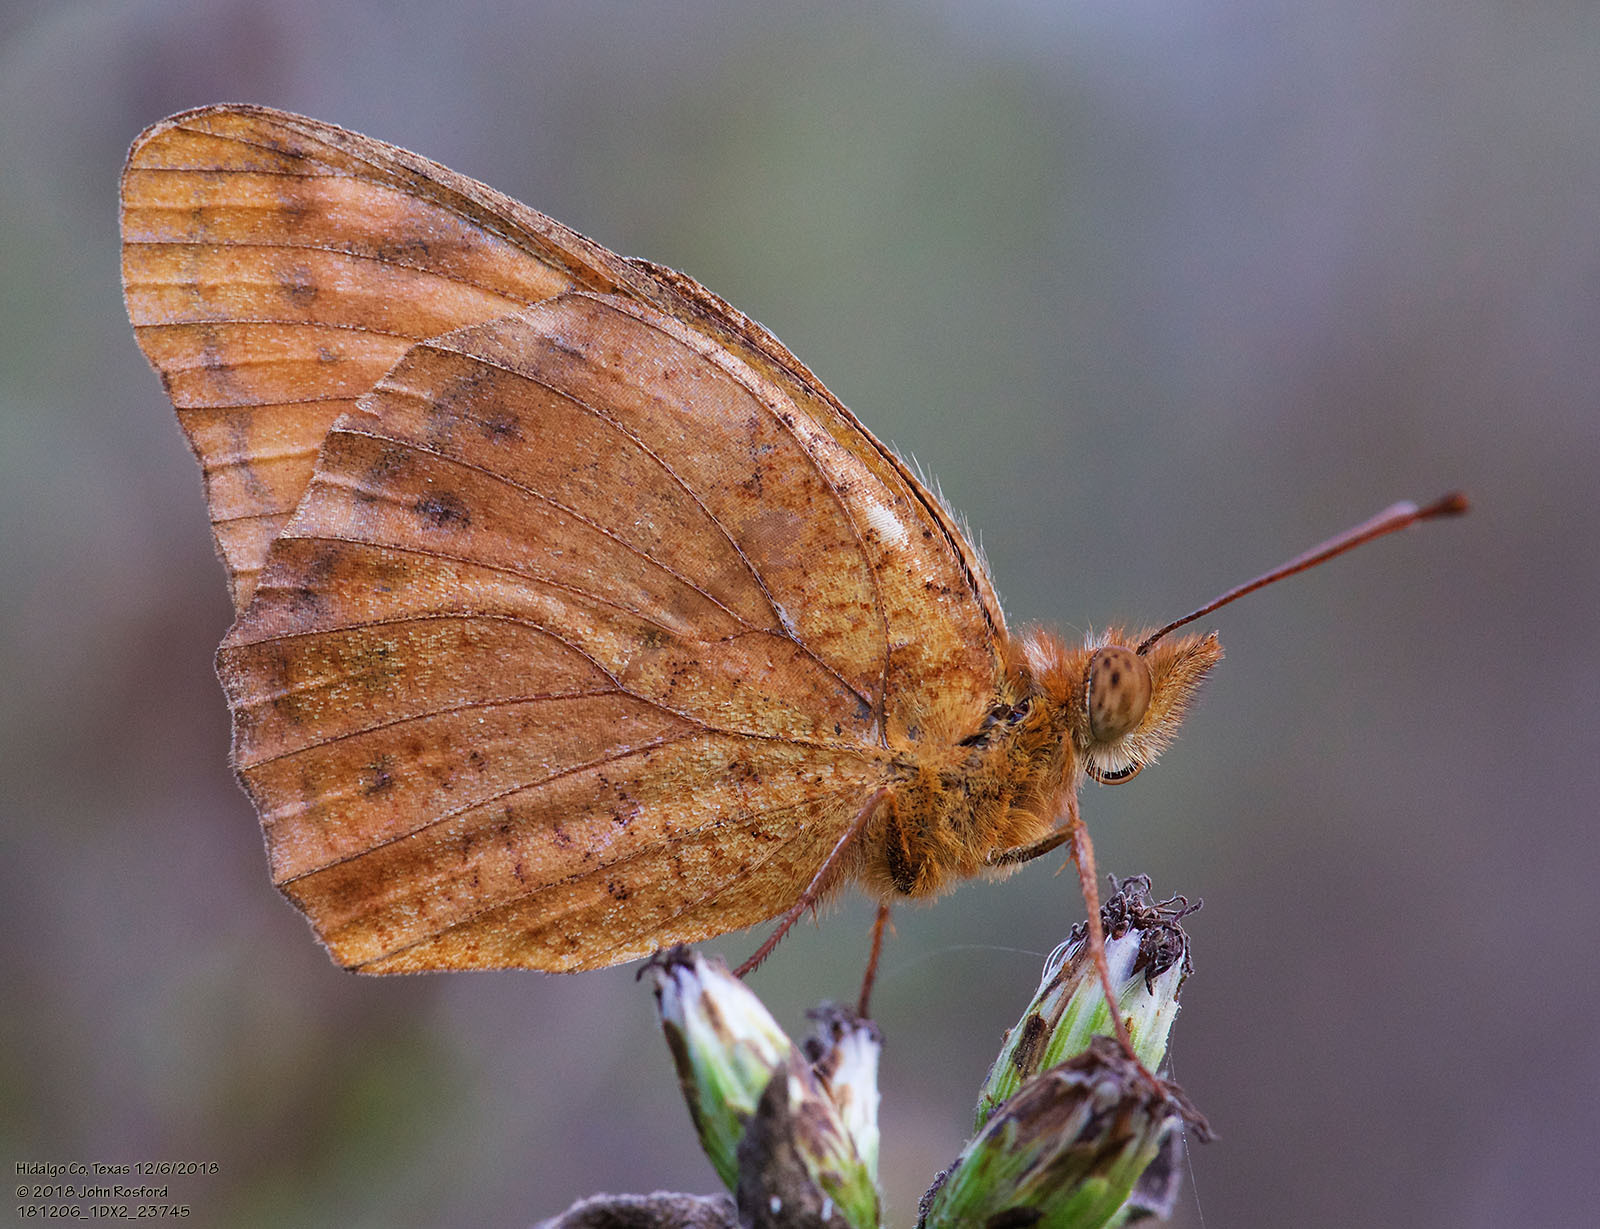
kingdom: Animalia
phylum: Arthropoda
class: Insecta
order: Lepidoptera
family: Nymphalidae
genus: Euptoieta
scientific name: Euptoieta hegesia
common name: Mexican fritillary
